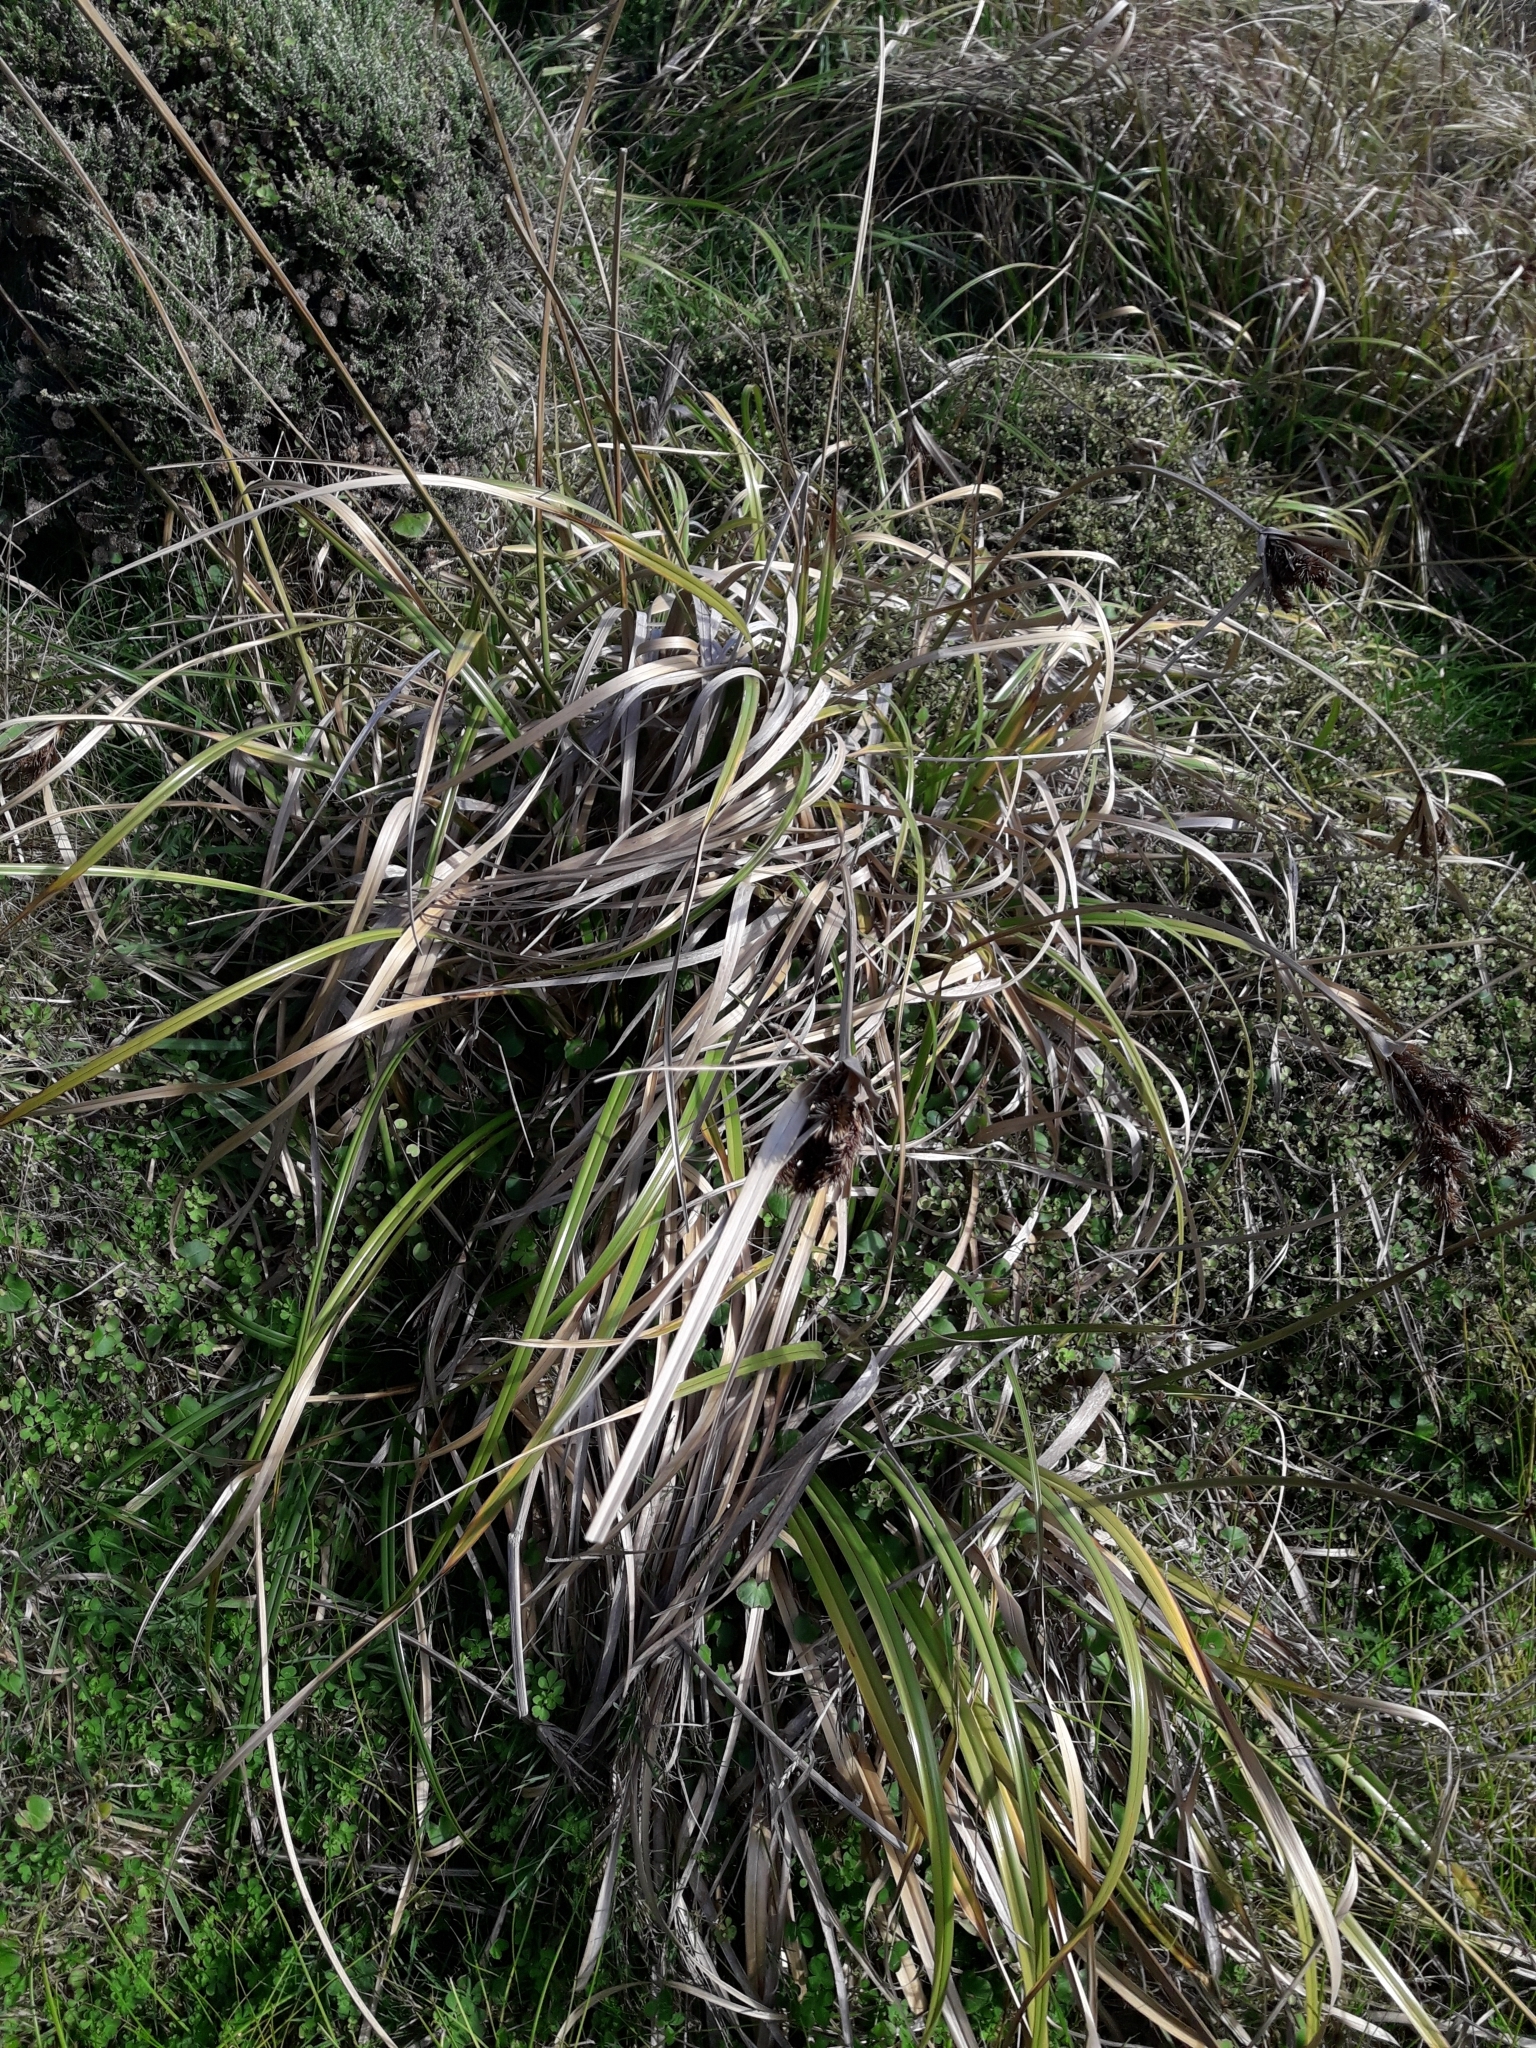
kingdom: Plantae
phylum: Tracheophyta
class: Liliopsida
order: Poales
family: Cyperaceae
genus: Cyperus
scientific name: Cyperus ustulatus
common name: Giant umbrella-sedge
